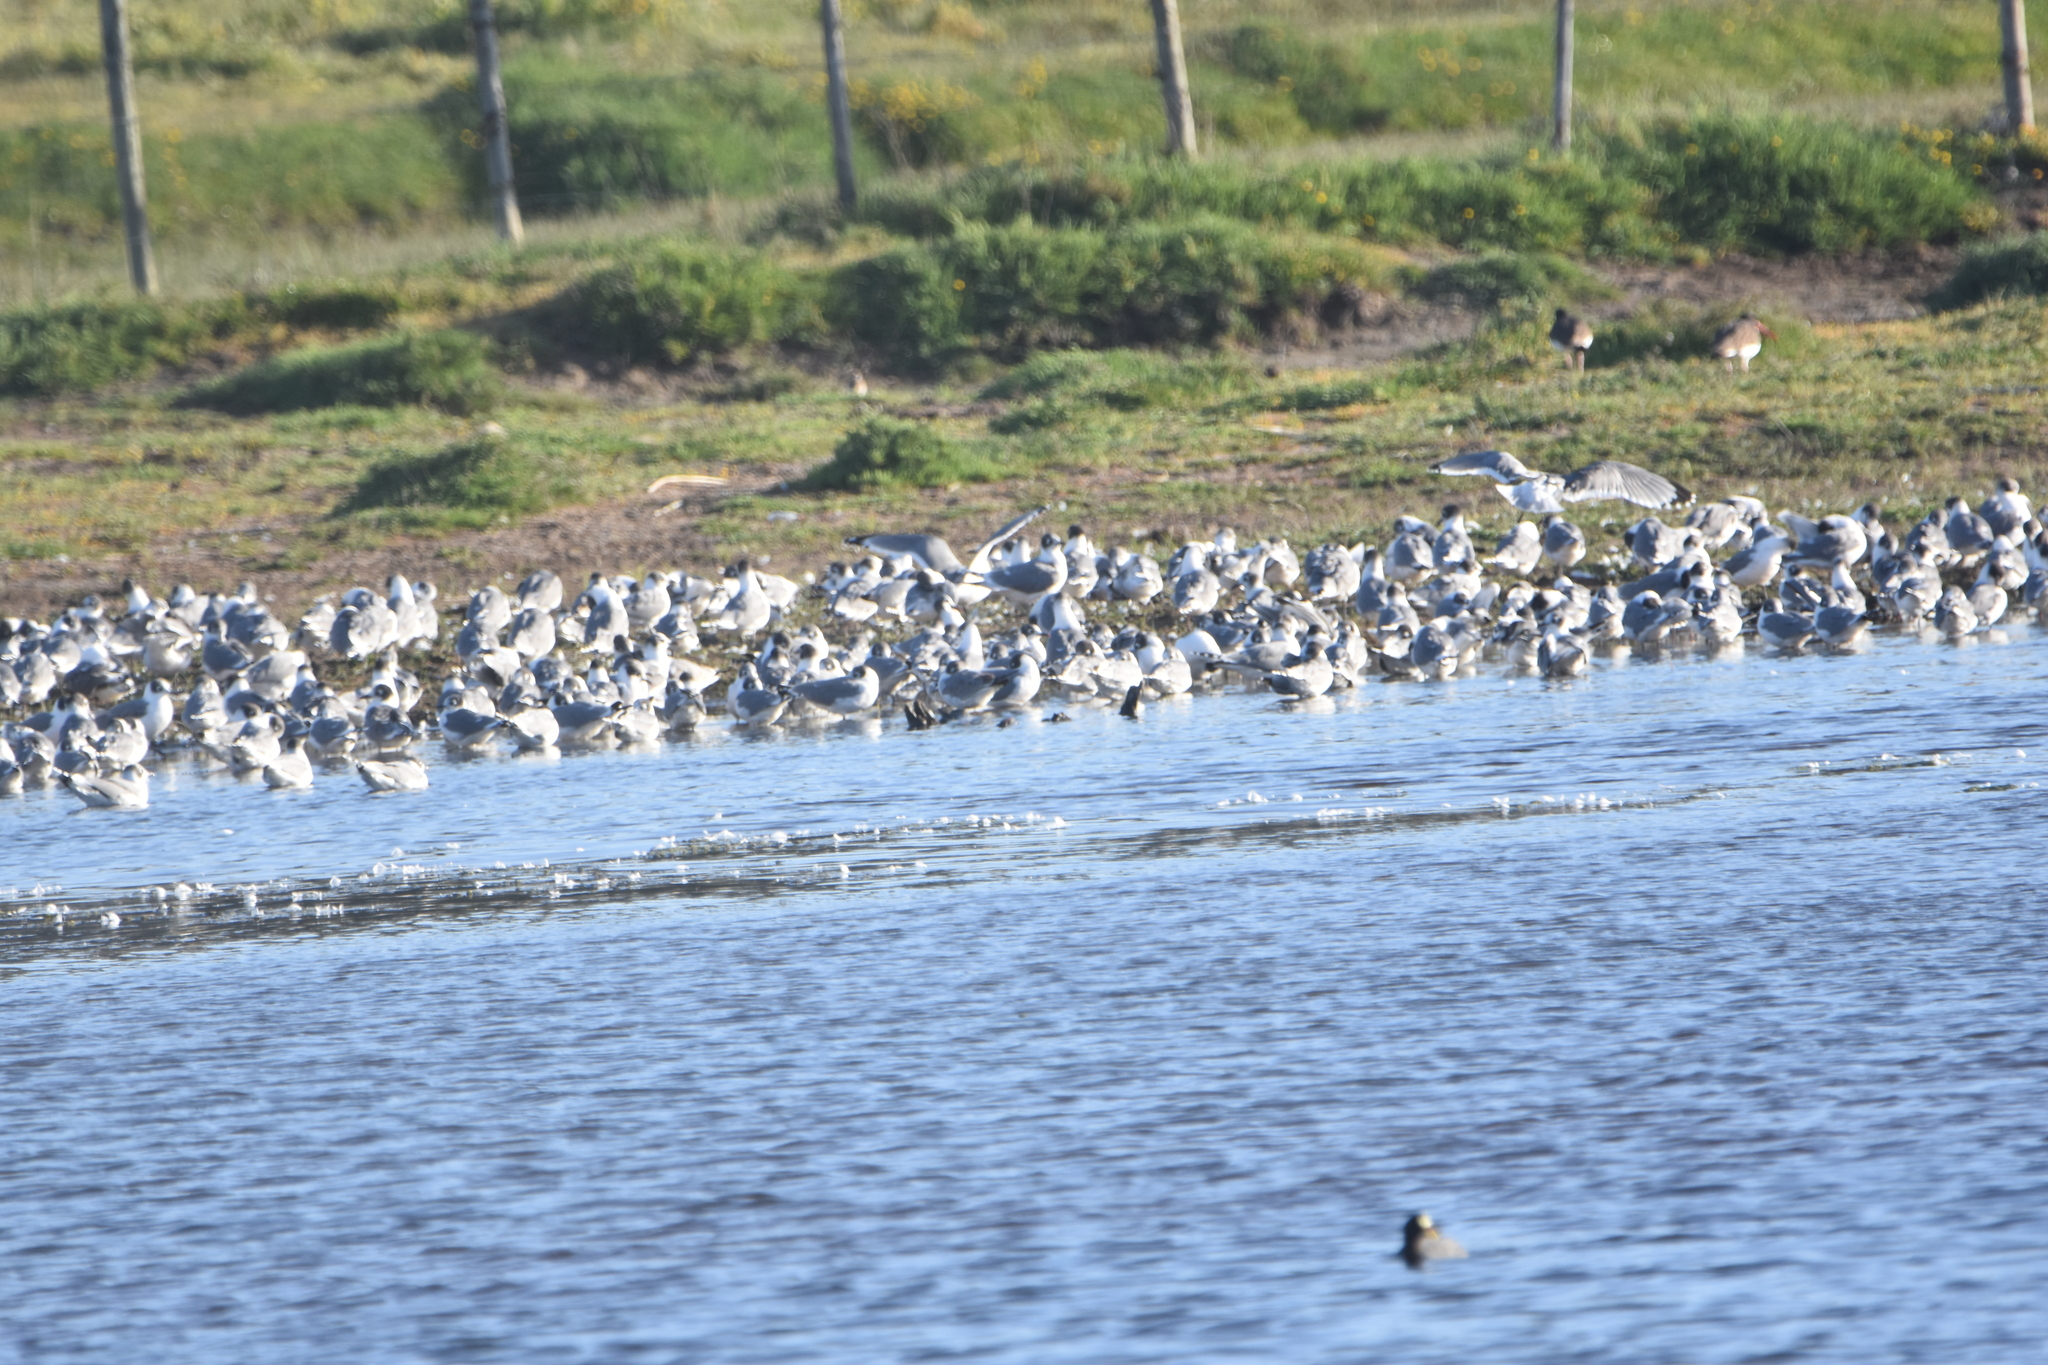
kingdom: Animalia
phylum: Chordata
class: Aves
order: Charadriiformes
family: Laridae
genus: Leucophaeus
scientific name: Leucophaeus pipixcan
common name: Franklin's gull
